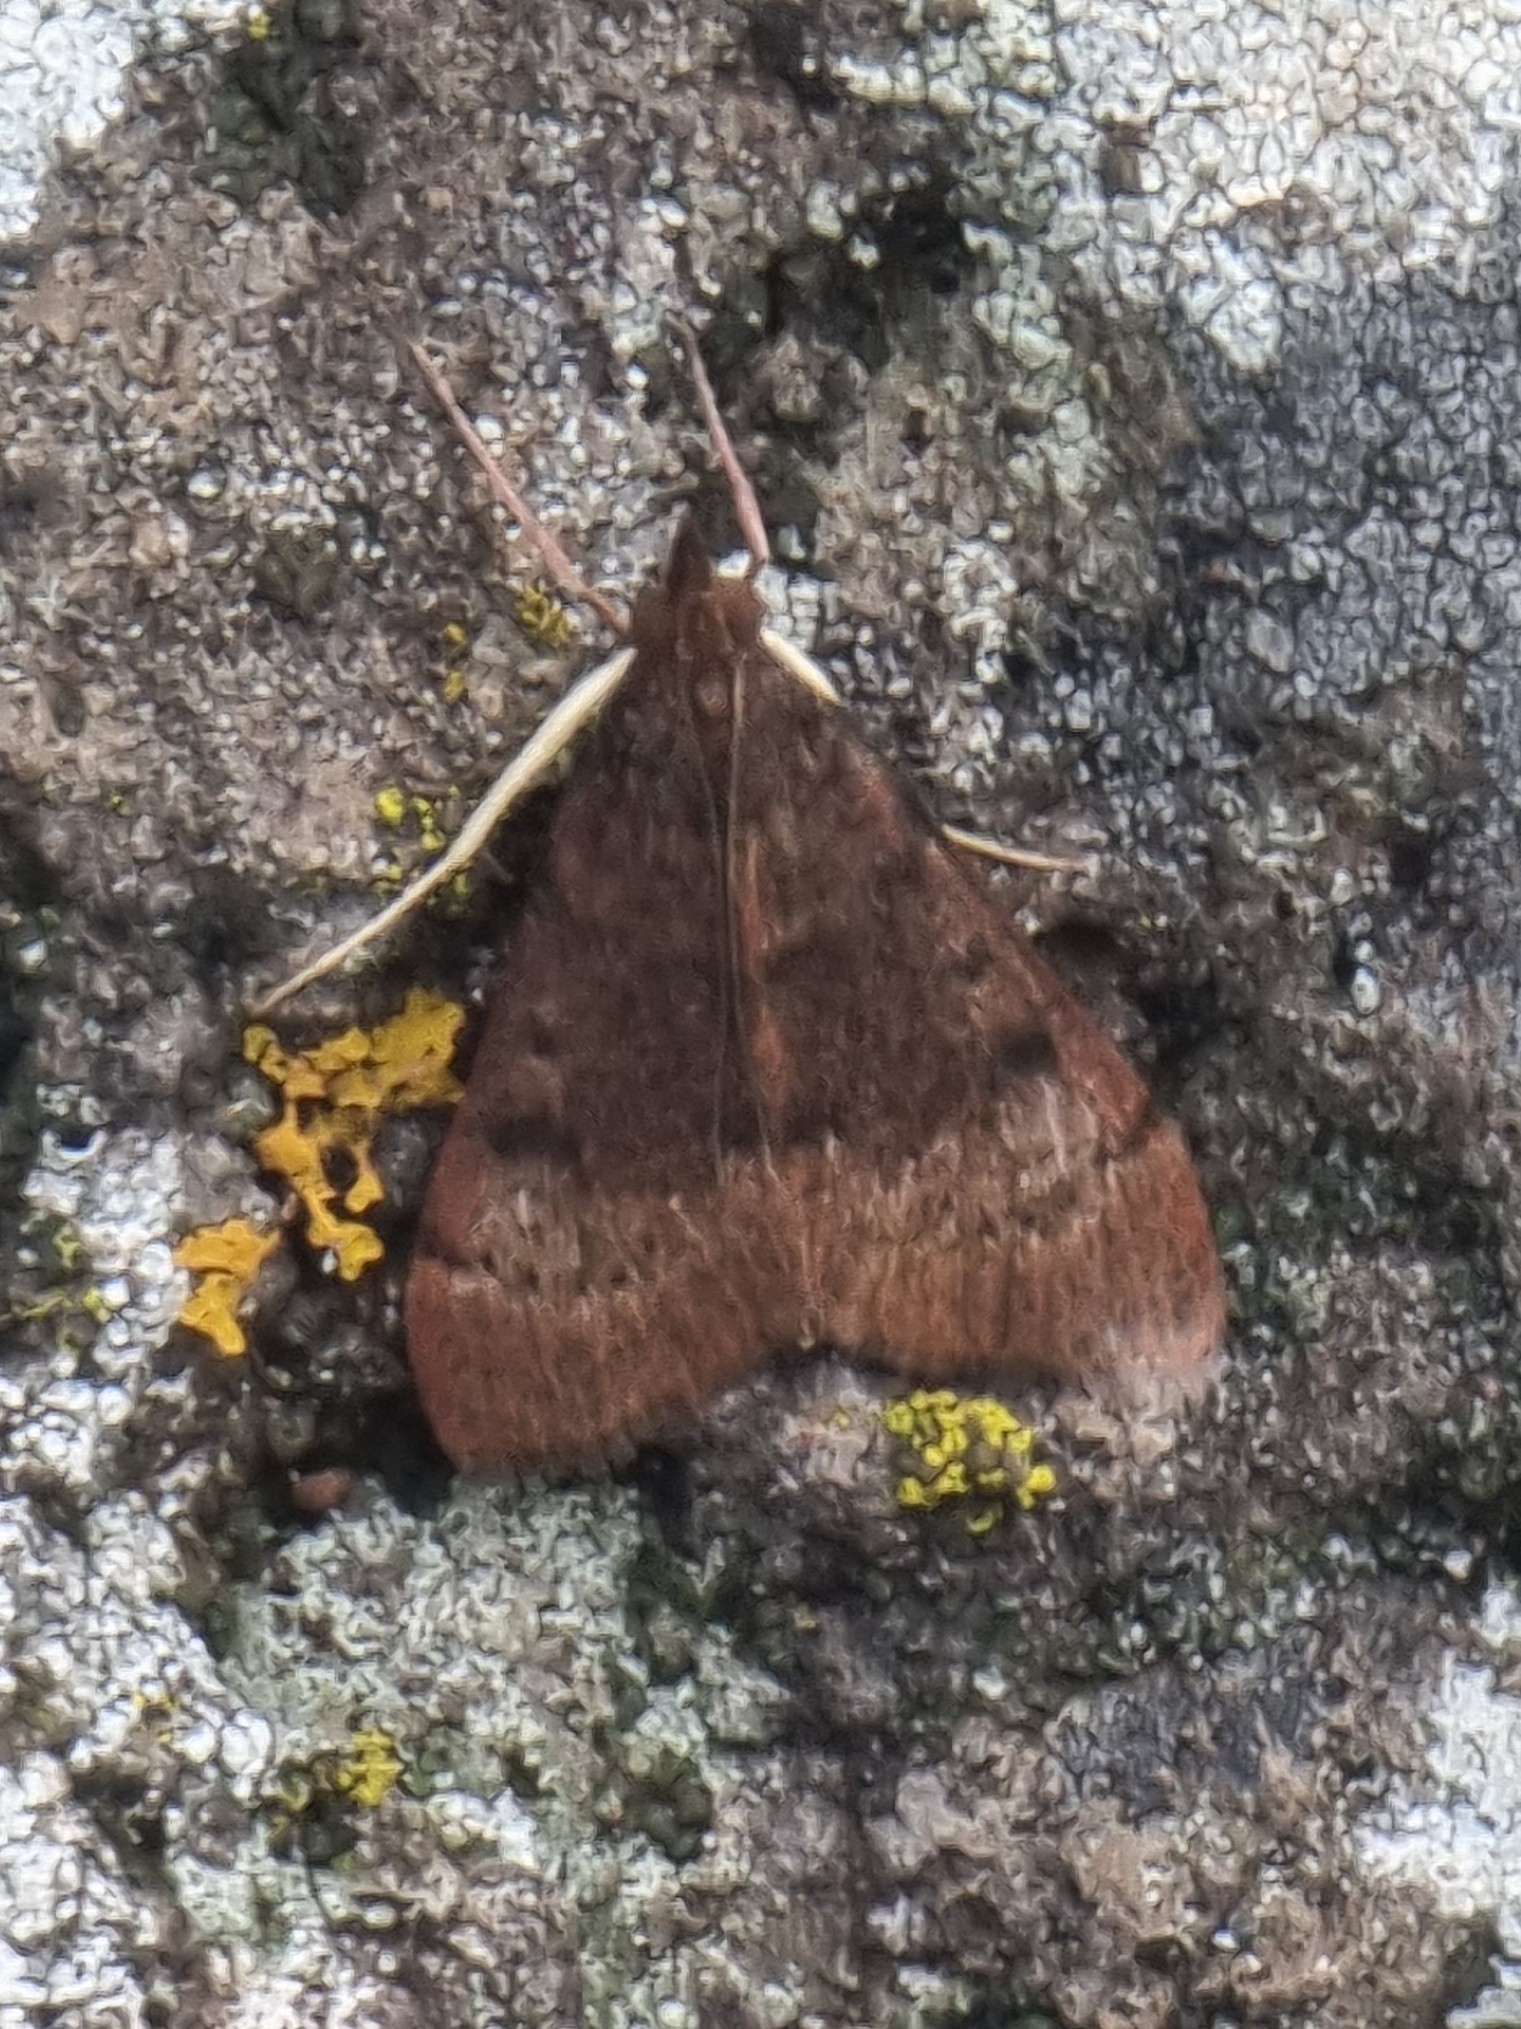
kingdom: Animalia
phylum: Arthropoda
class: Insecta
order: Lepidoptera
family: Crambidae
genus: Uresiphita
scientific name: Uresiphita gilvata
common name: Yellow-underwing pearl
